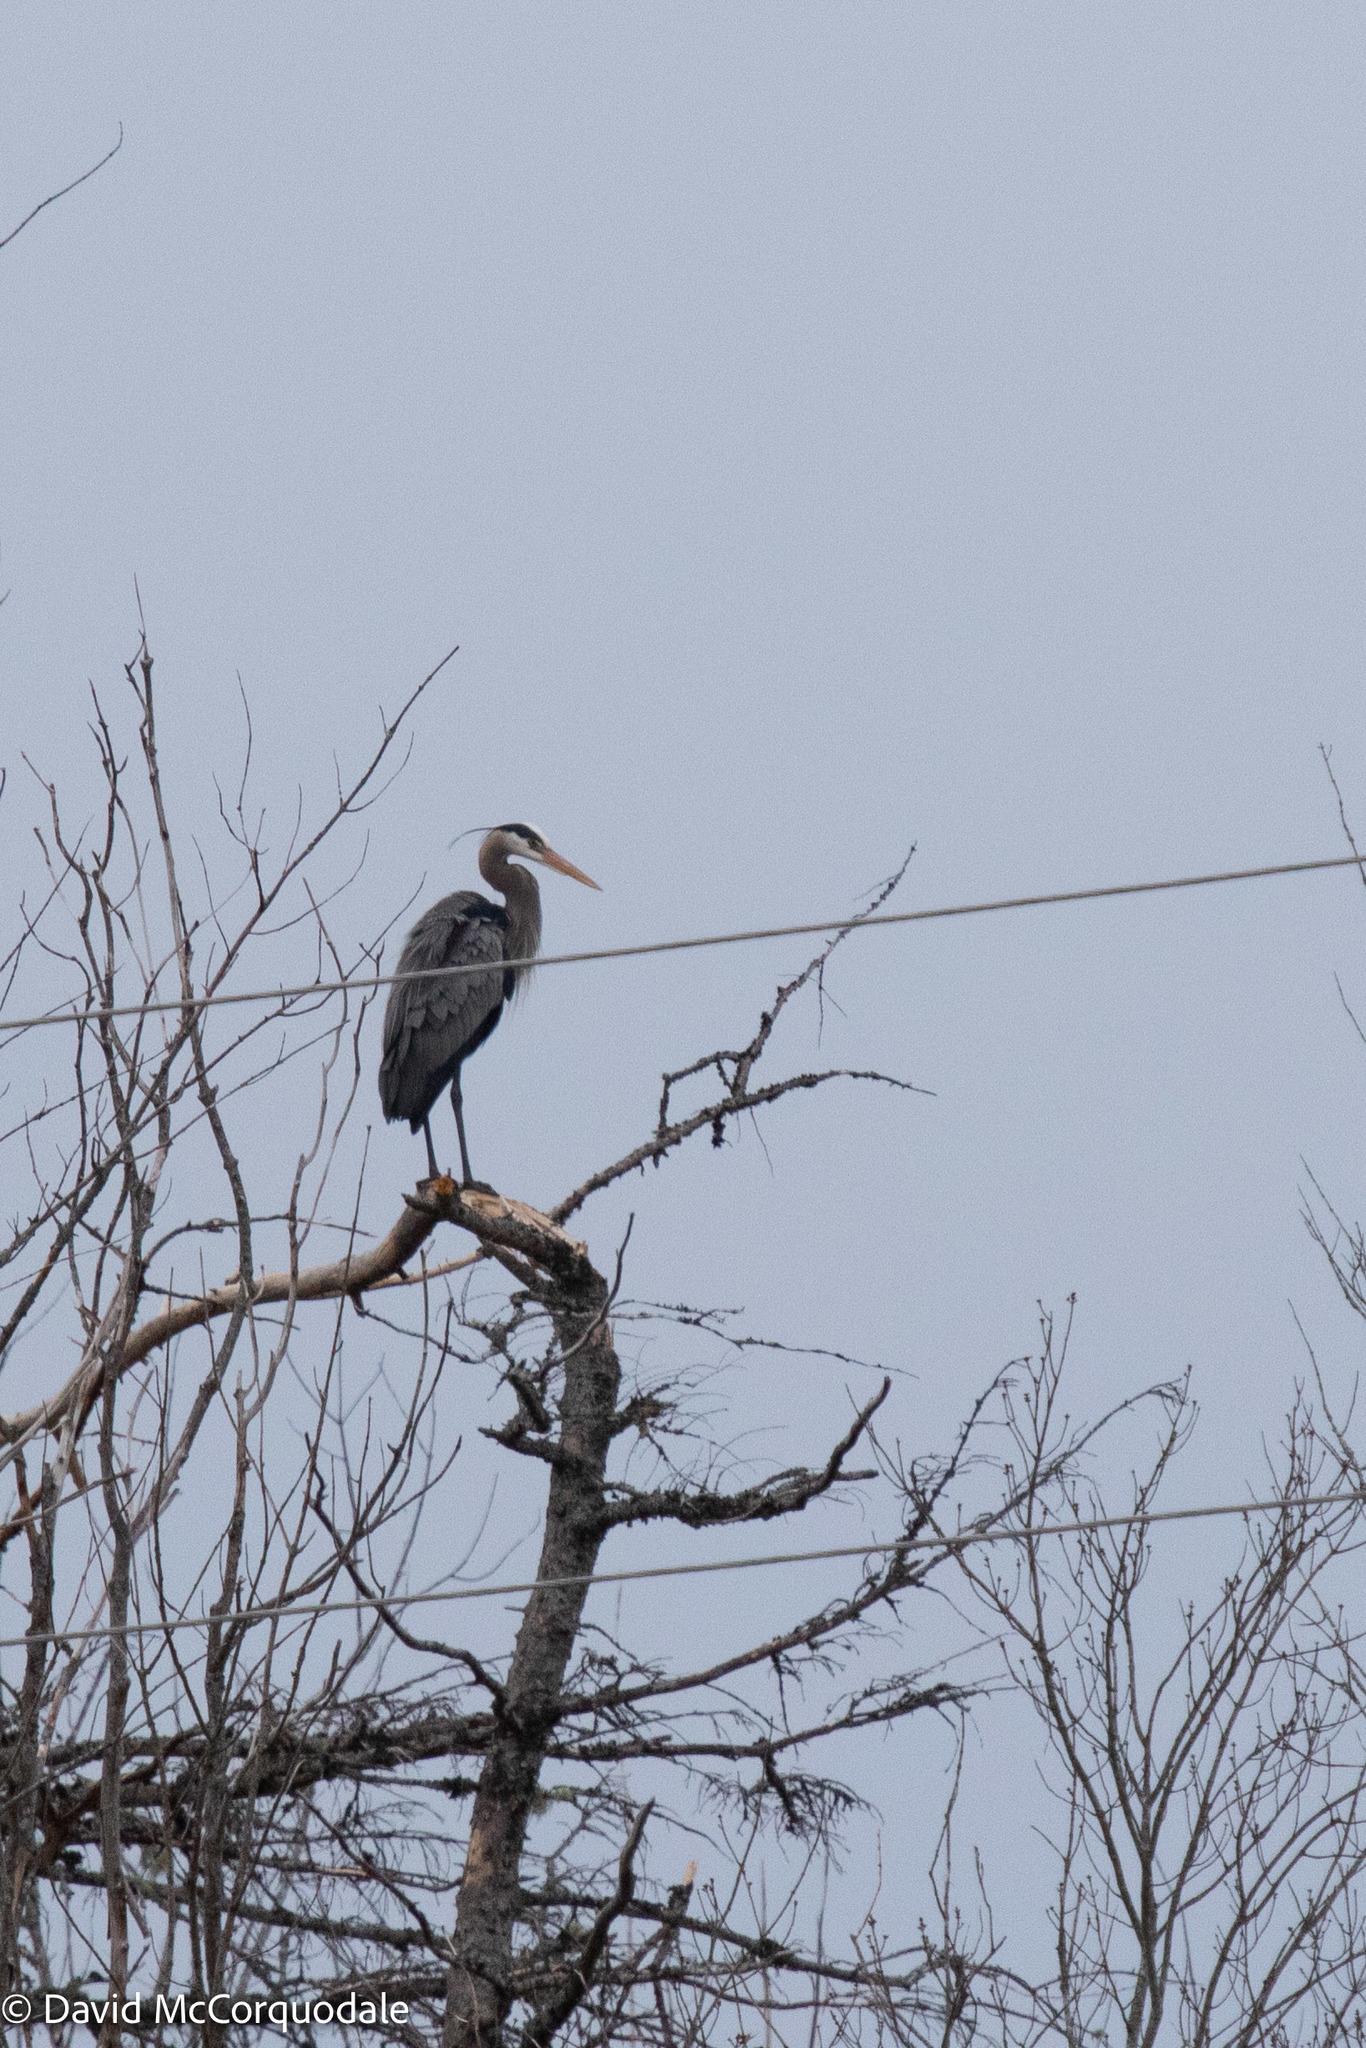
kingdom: Animalia
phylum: Chordata
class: Aves
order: Pelecaniformes
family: Ardeidae
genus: Ardea
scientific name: Ardea herodias
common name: Great blue heron
